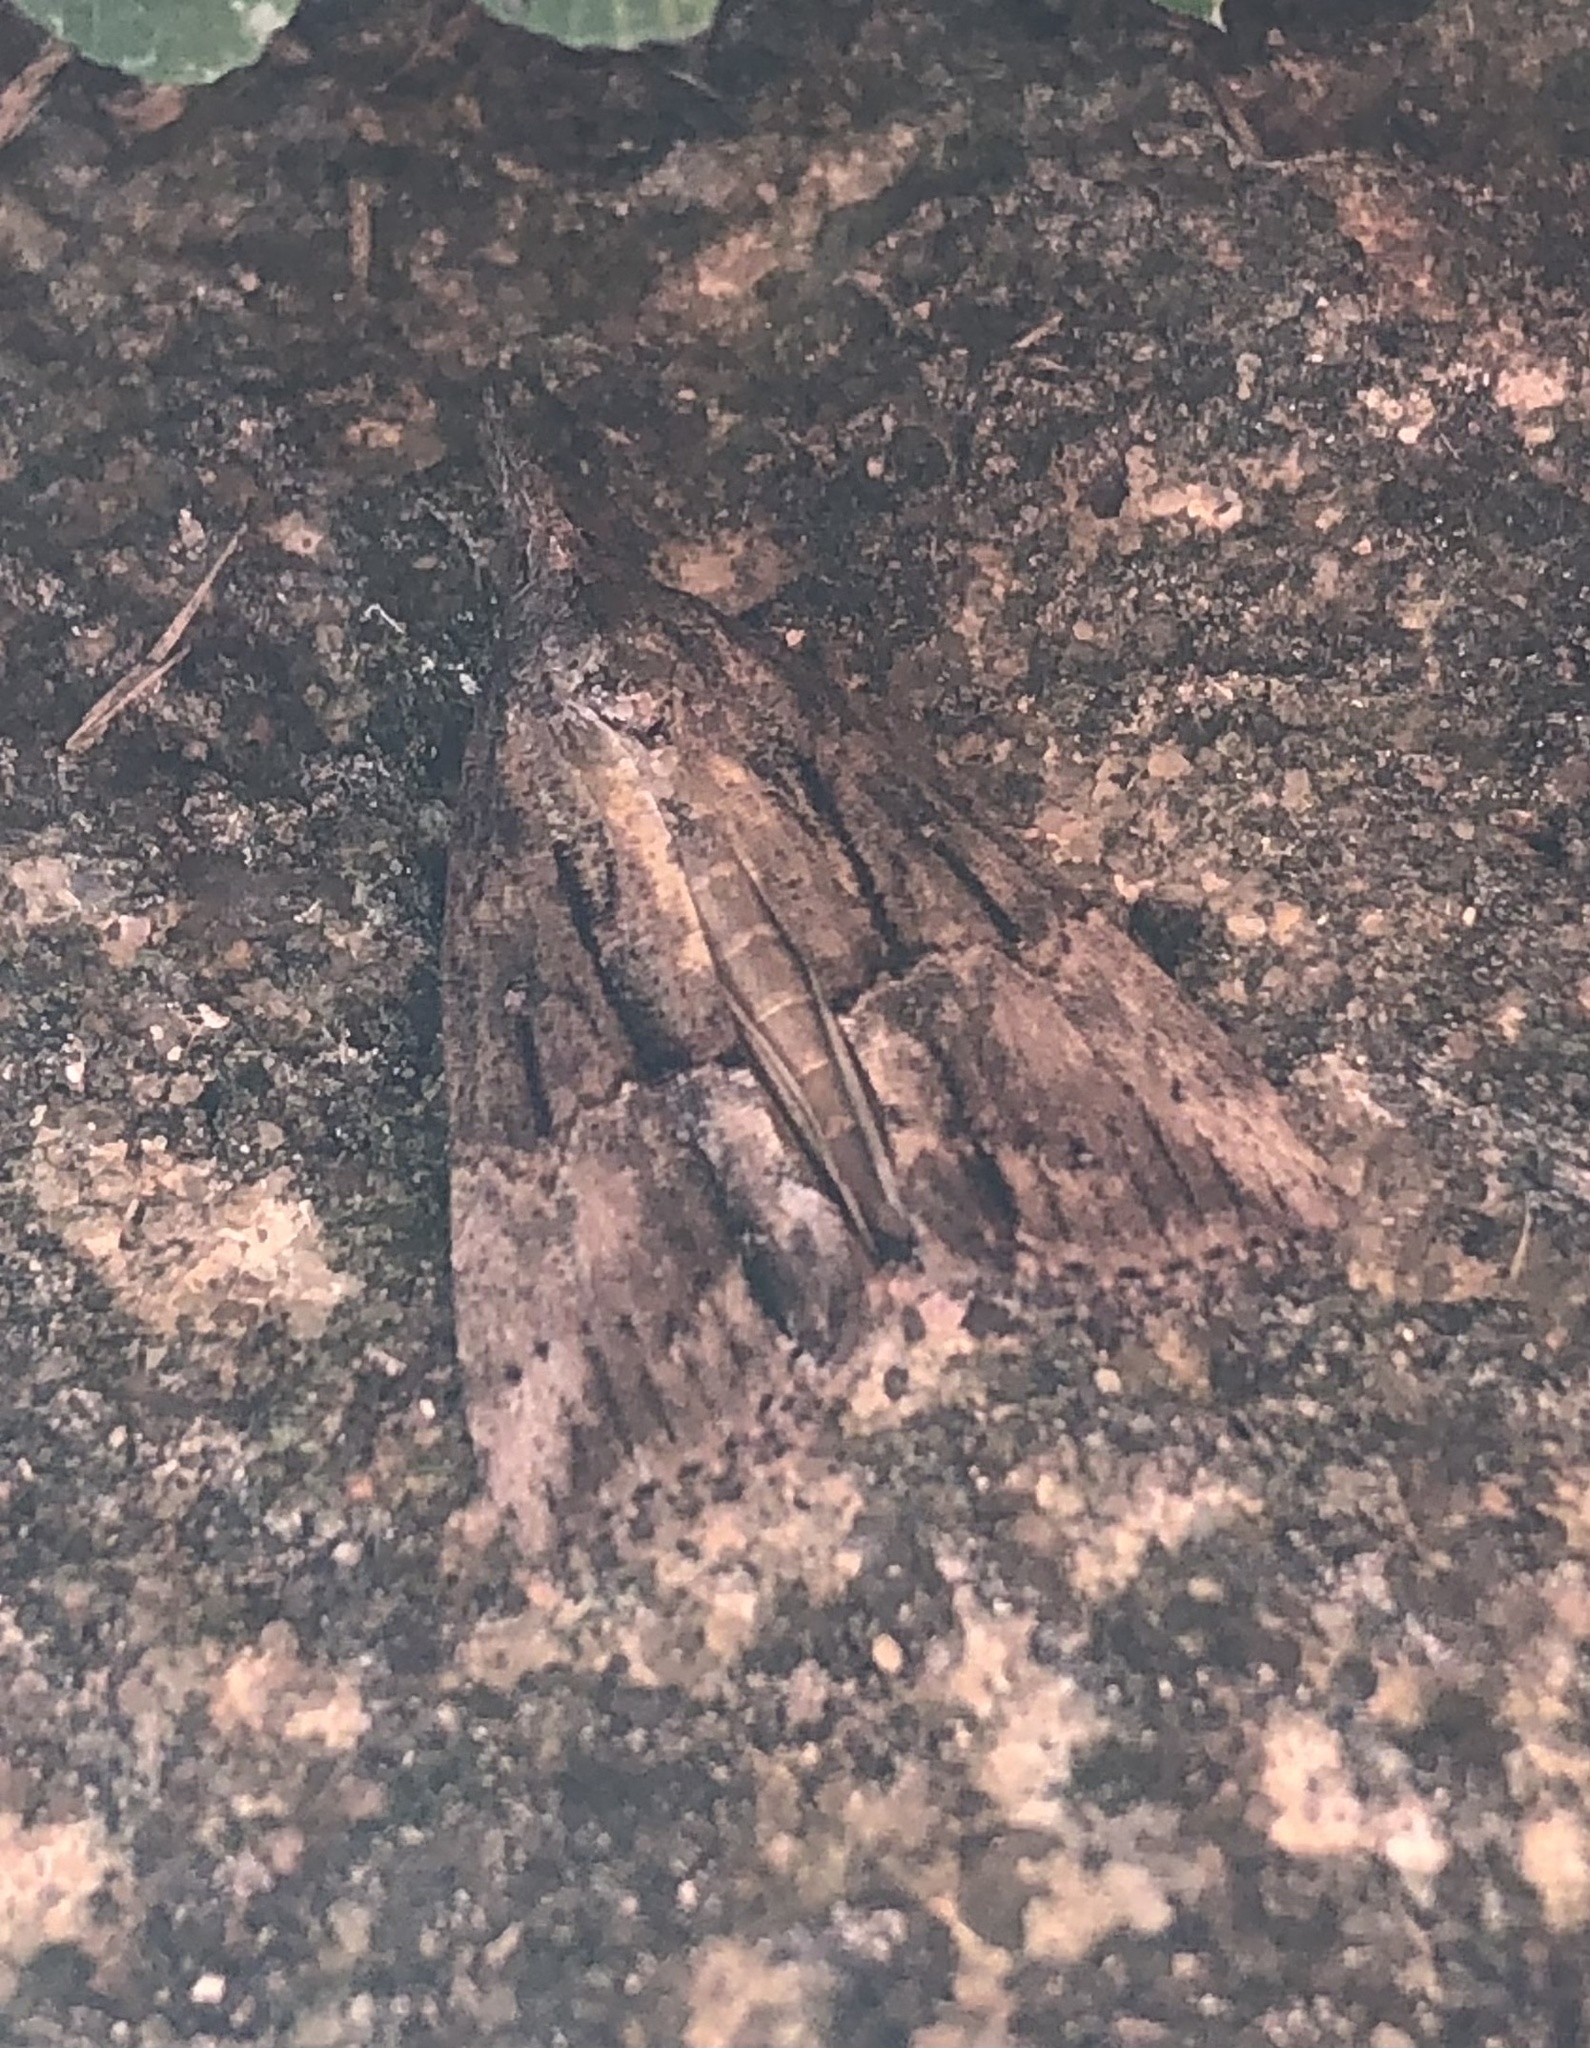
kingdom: Animalia
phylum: Arthropoda
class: Insecta
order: Lepidoptera
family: Erebidae
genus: Hypena
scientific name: Hypena scabra
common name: Green cloverworm
